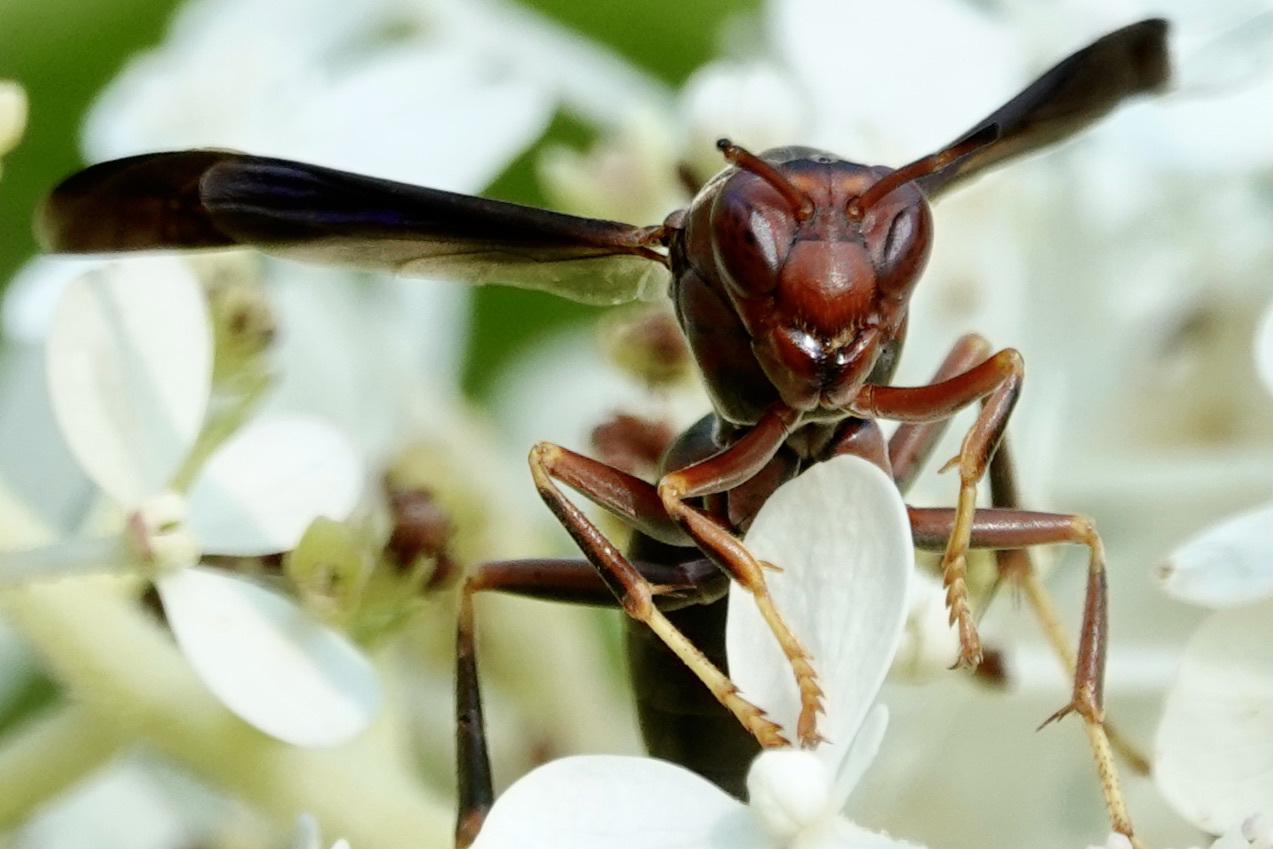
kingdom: Animalia
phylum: Arthropoda
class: Insecta
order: Hymenoptera
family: Eumenidae
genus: Polistes
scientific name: Polistes metricus
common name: Metric paper wasp
